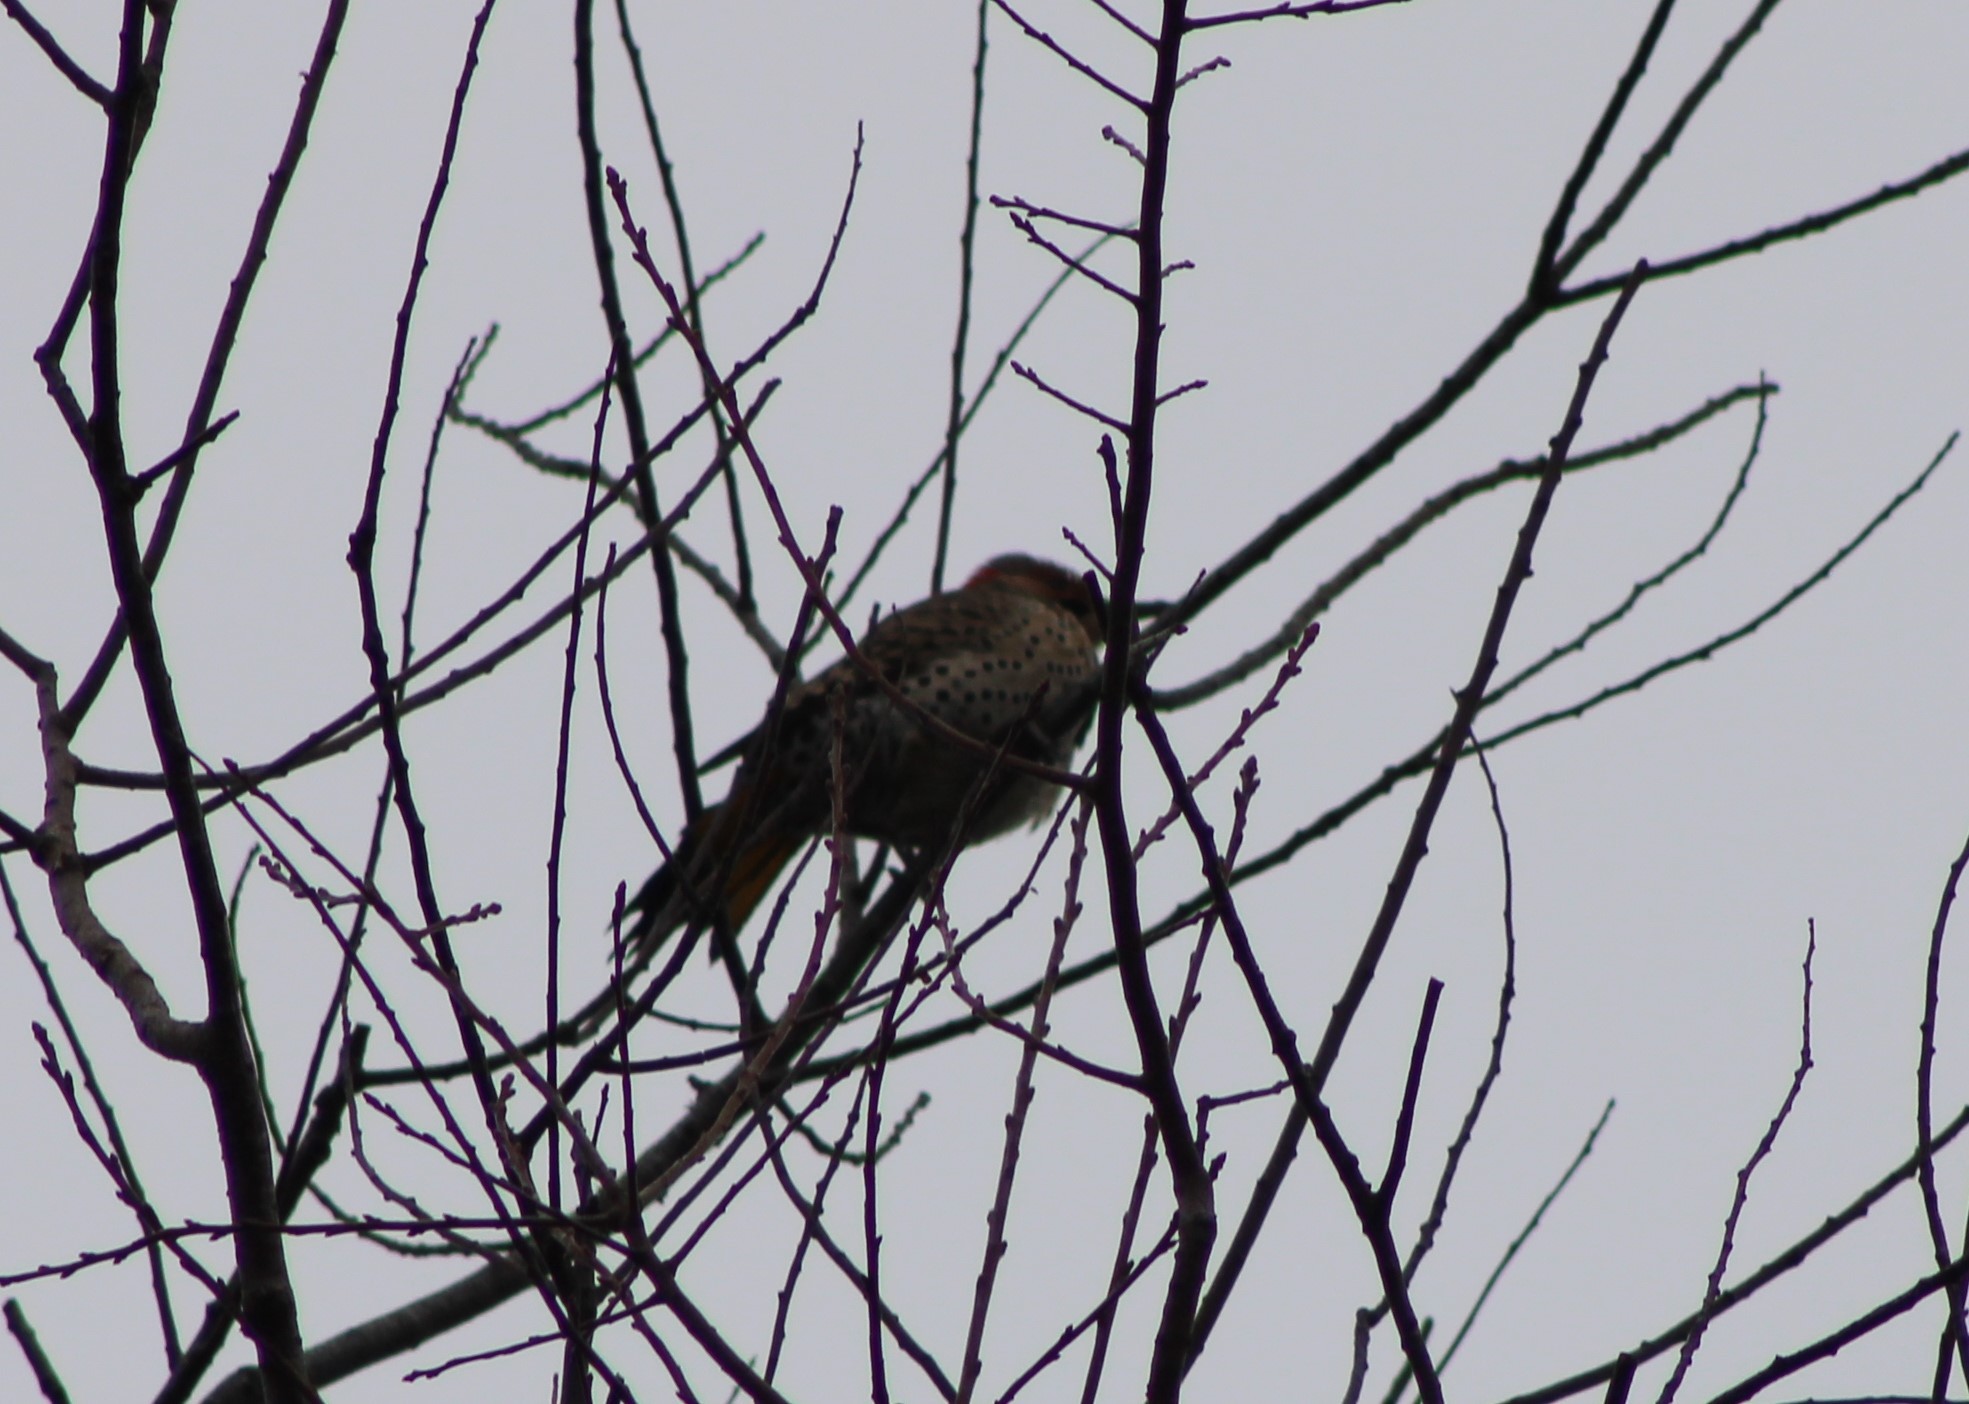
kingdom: Animalia
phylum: Chordata
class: Aves
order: Piciformes
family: Picidae
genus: Colaptes
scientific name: Colaptes auratus
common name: Northern flicker
